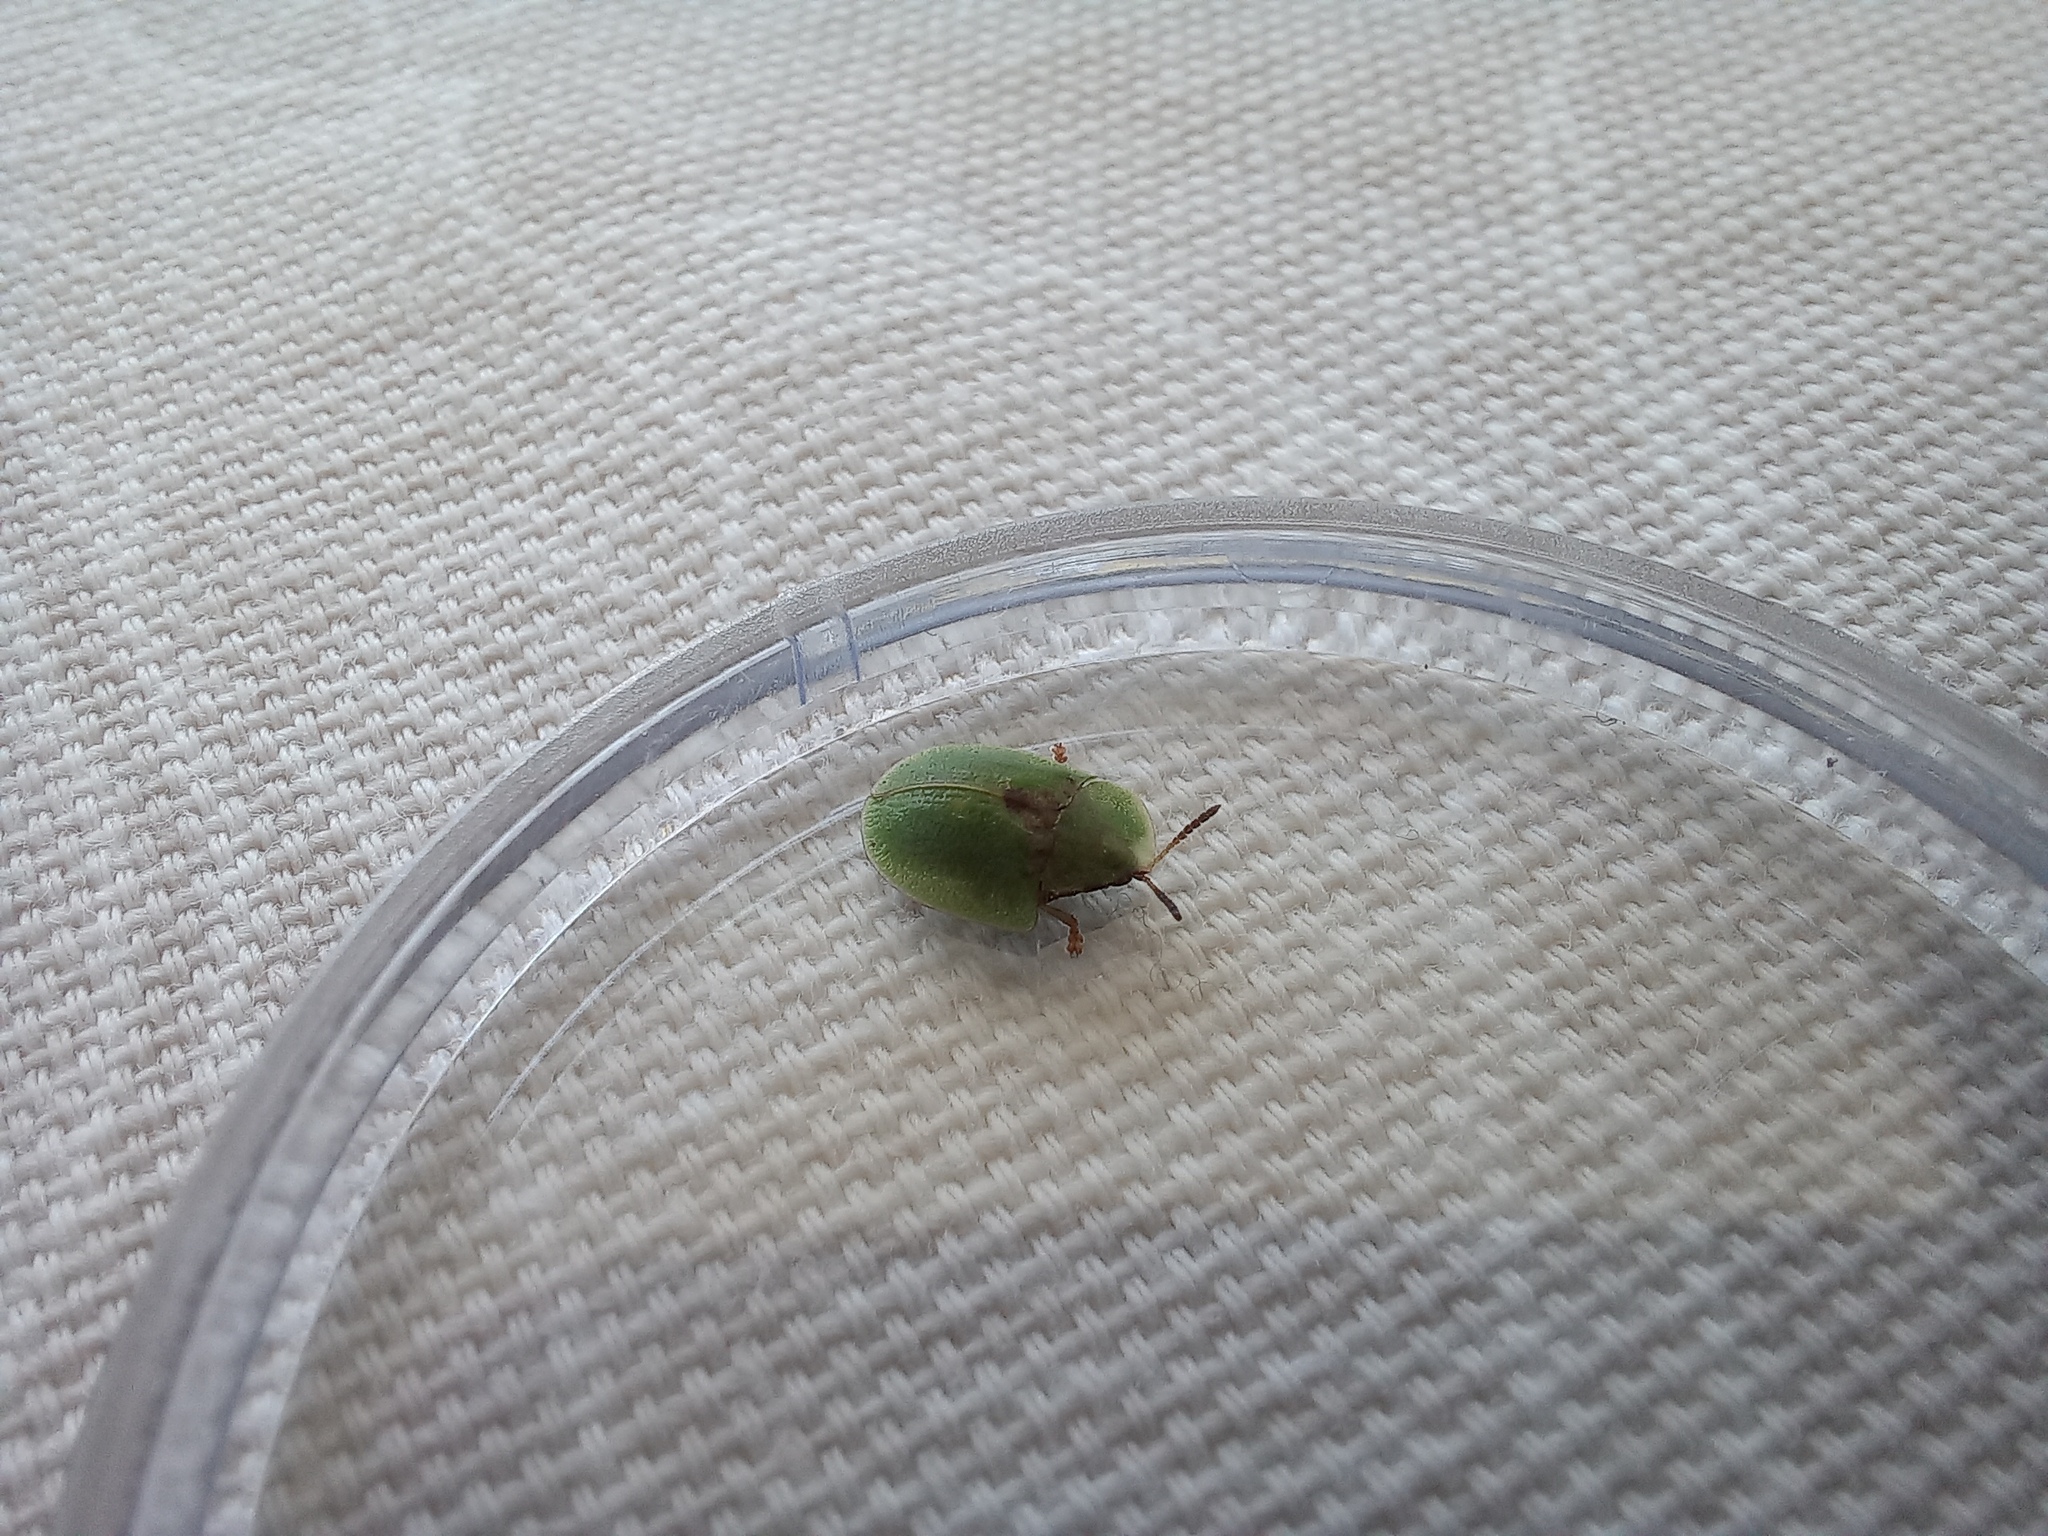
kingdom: Animalia
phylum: Arthropoda
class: Insecta
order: Coleoptera
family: Chrysomelidae
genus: Cassida
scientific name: Cassida rubiginosa
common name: Thistle tortoise beetle
